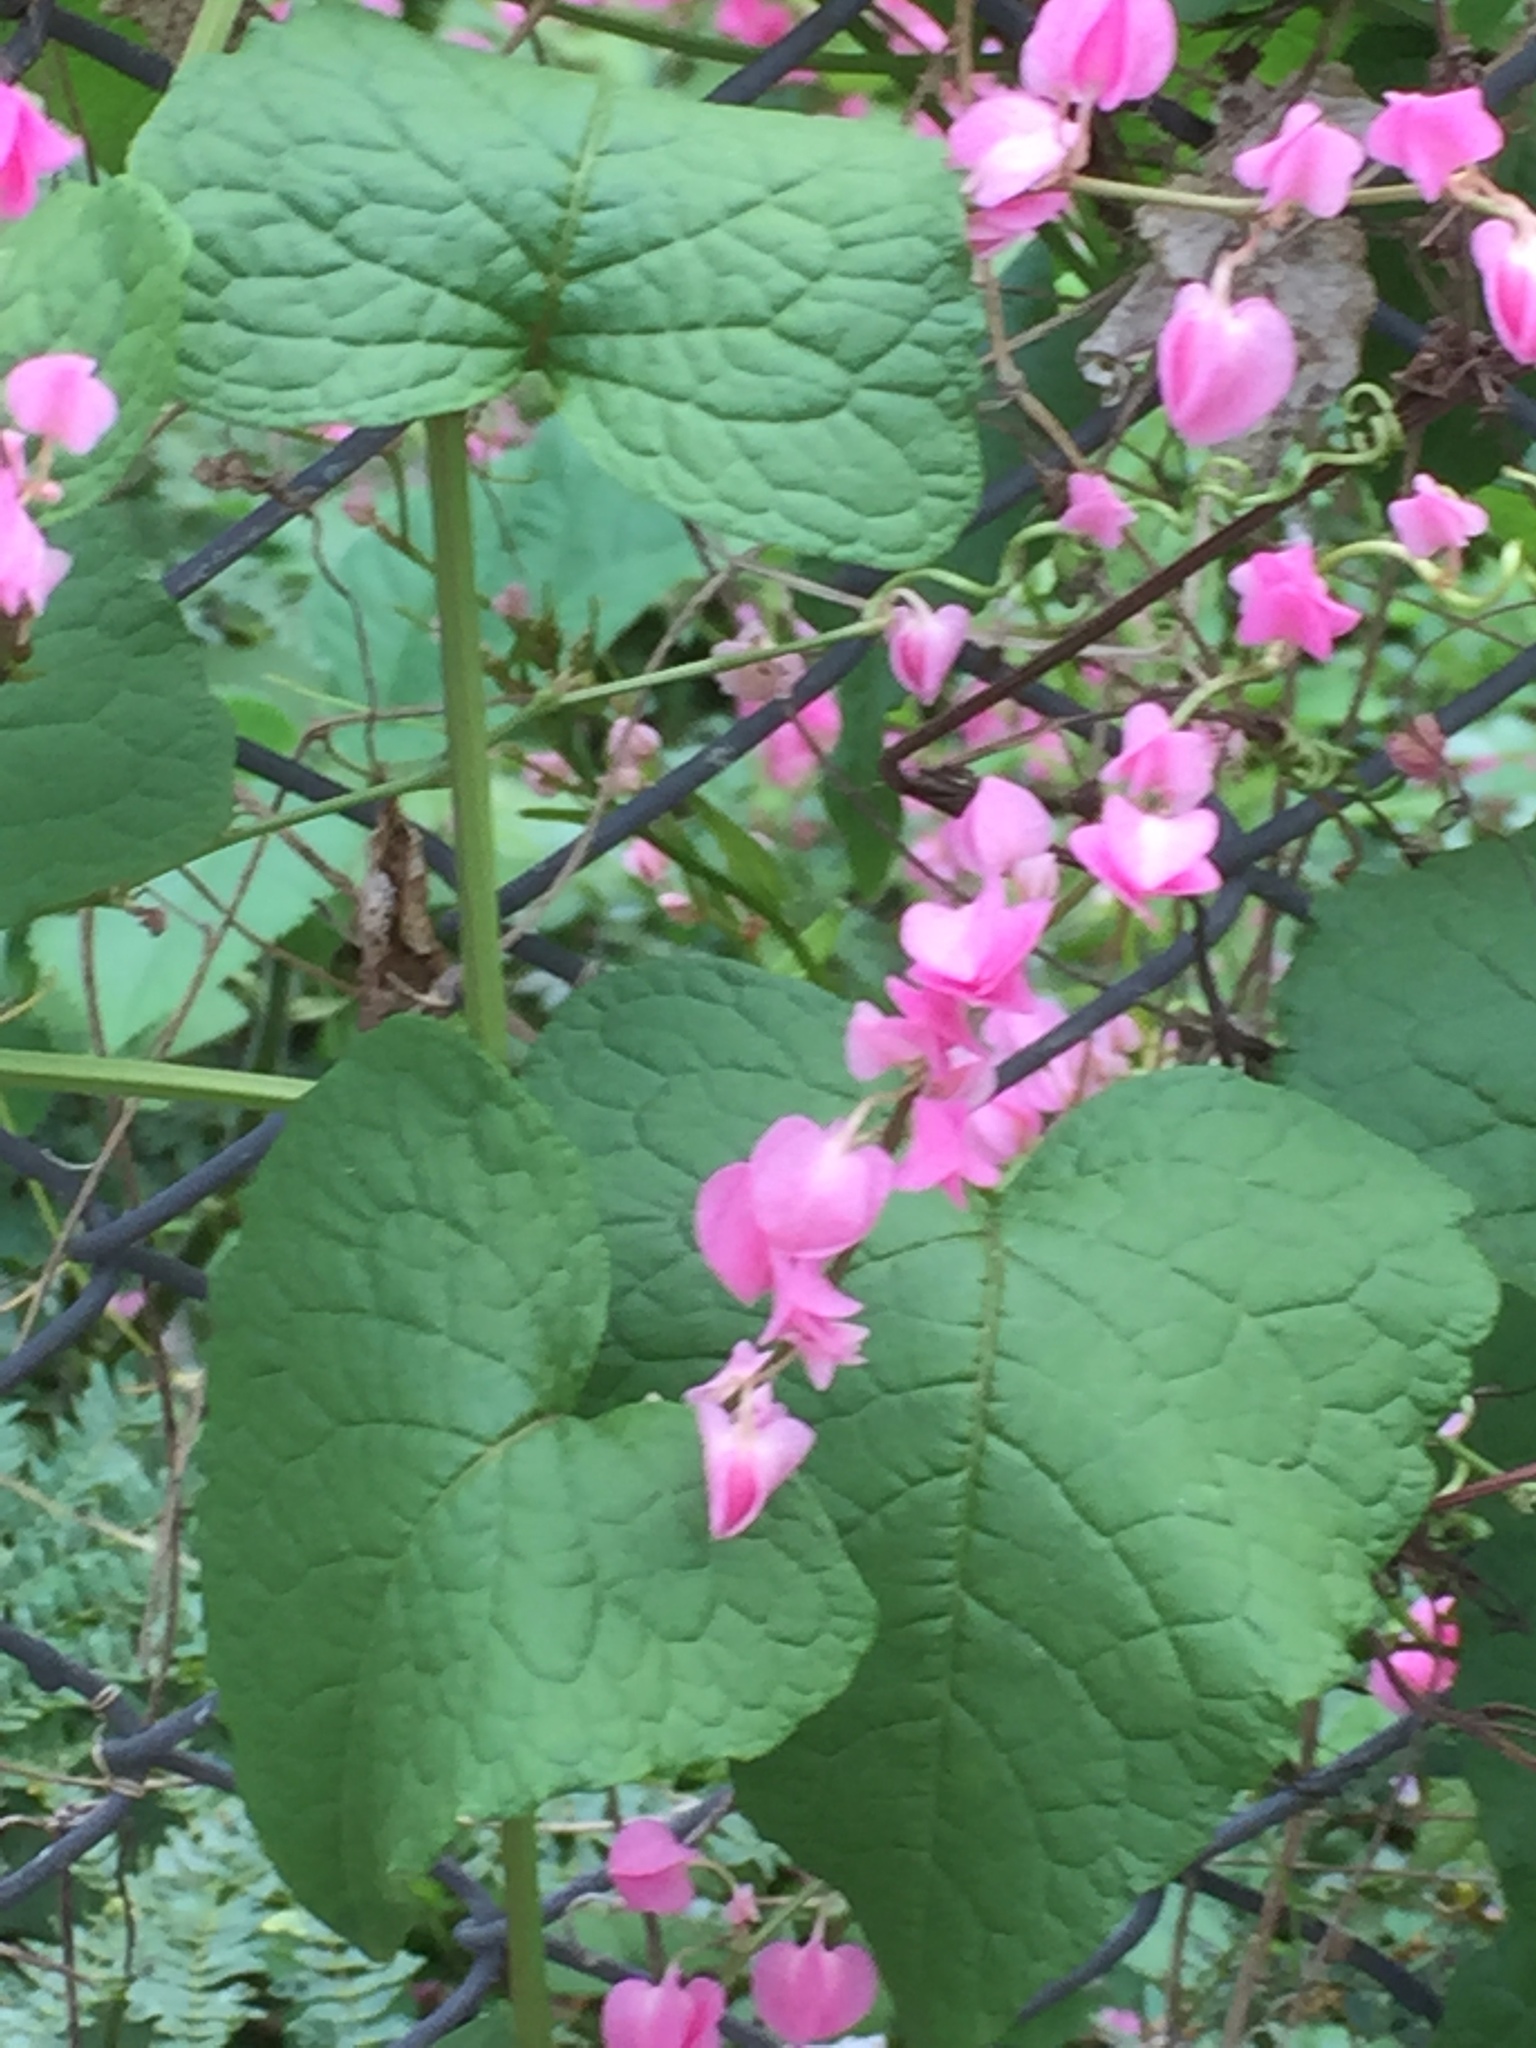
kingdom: Plantae
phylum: Tracheophyta
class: Magnoliopsida
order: Caryophyllales
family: Polygonaceae
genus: Antigonon
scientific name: Antigonon leptopus
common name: Coral vine
